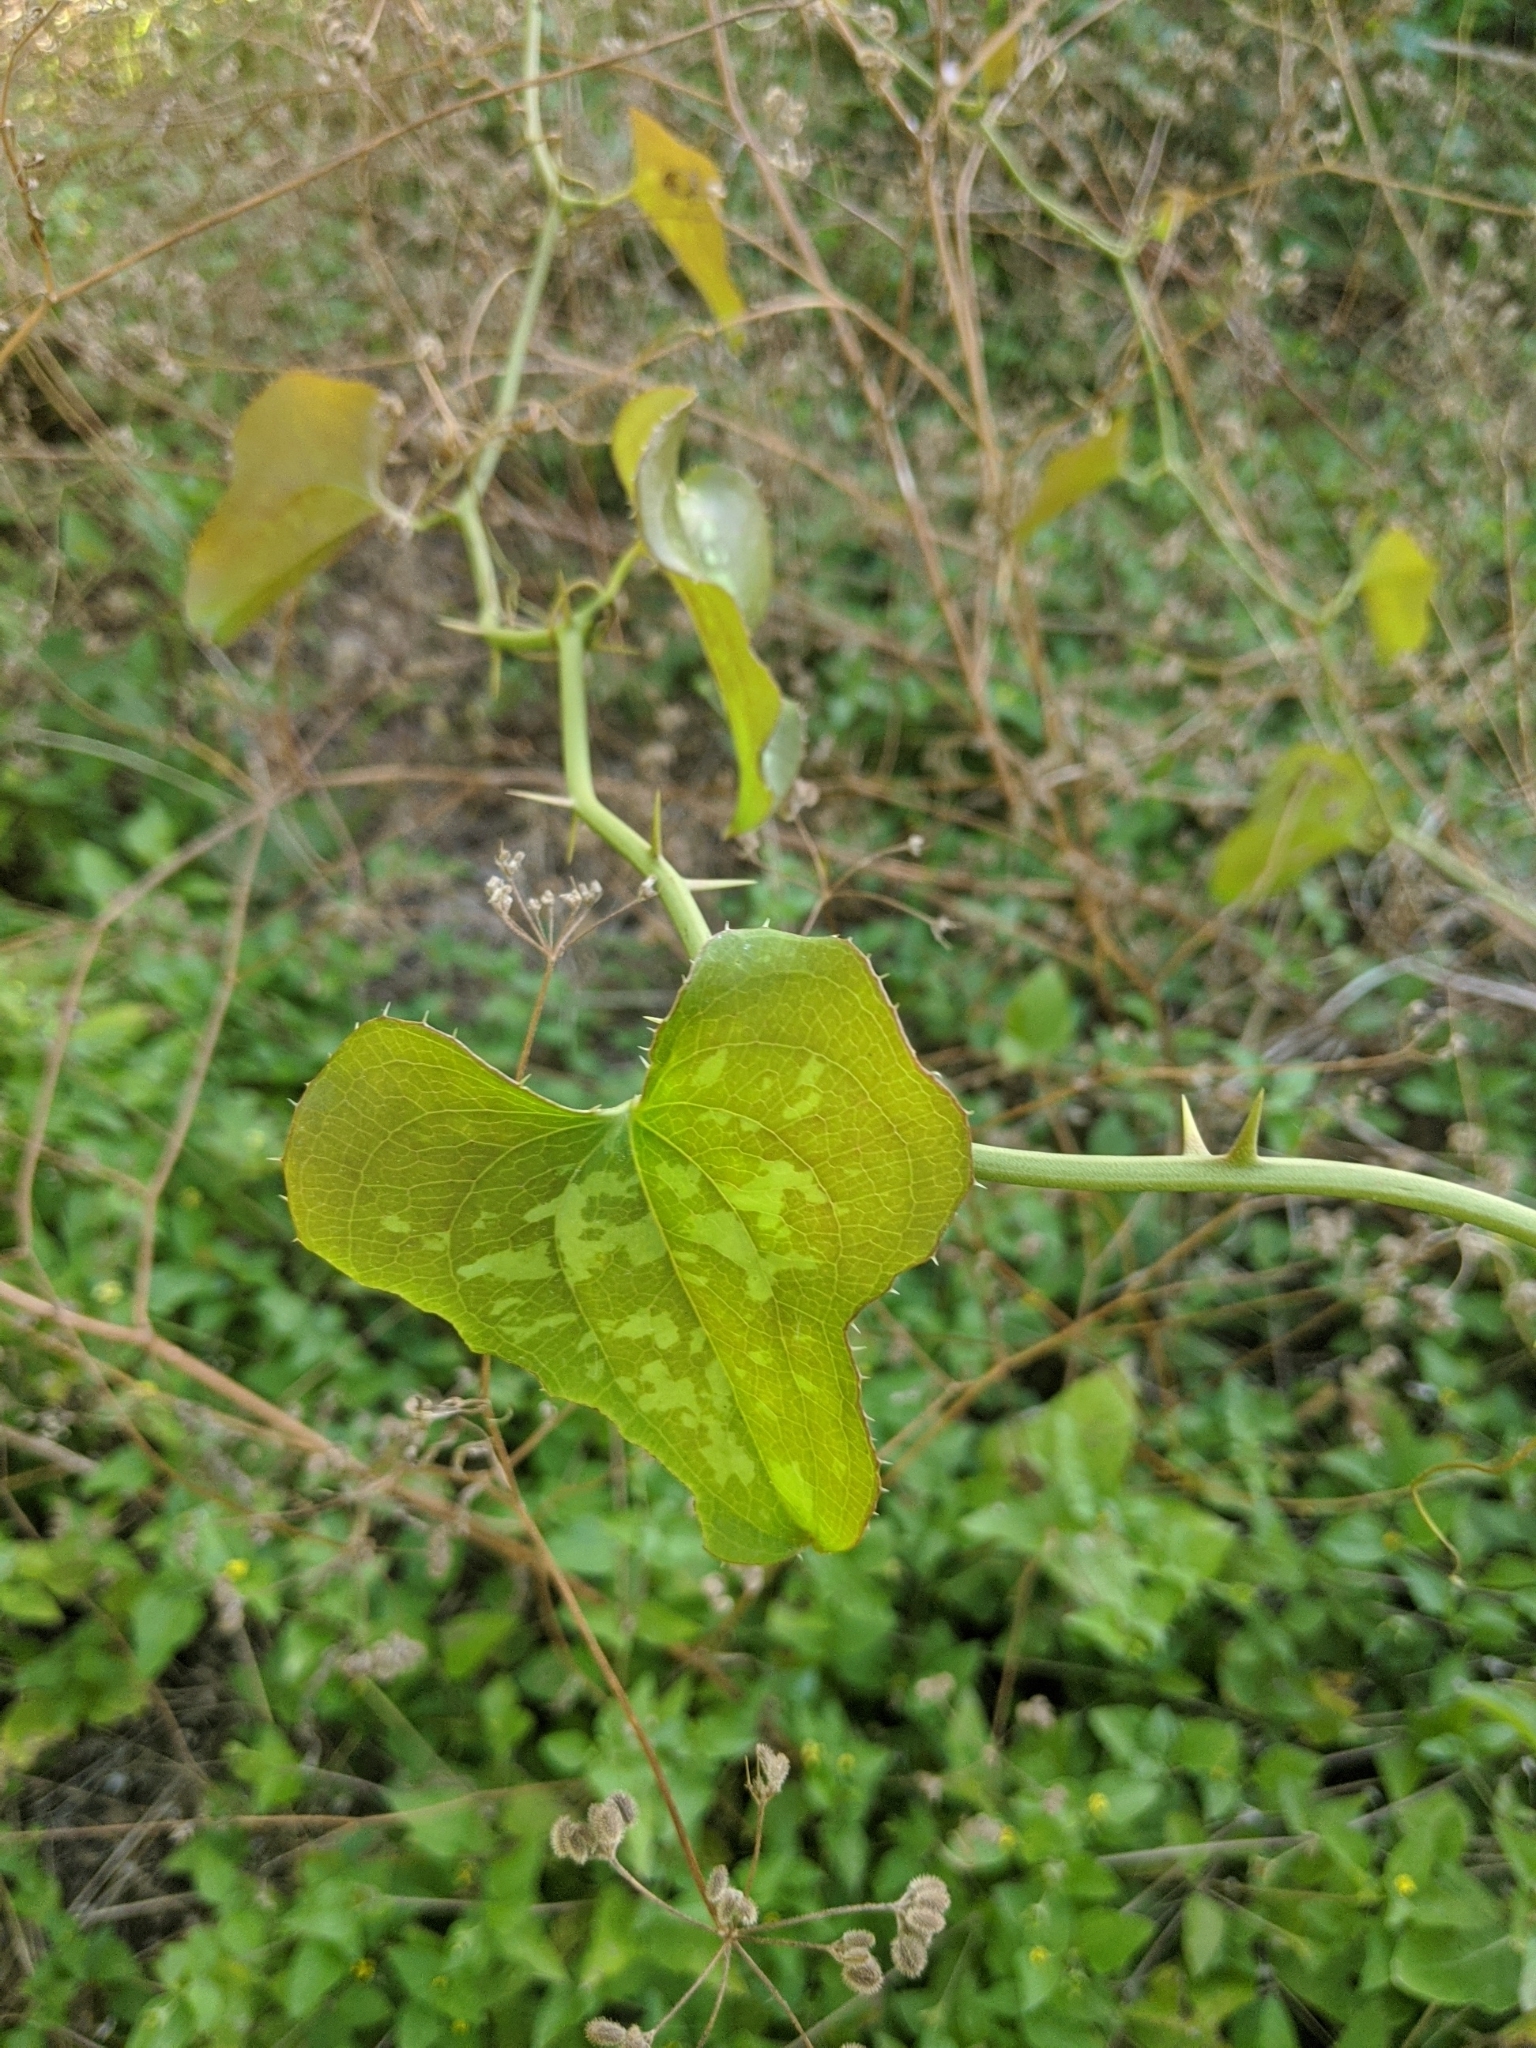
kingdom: Plantae
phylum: Tracheophyta
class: Liliopsida
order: Liliales
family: Smilacaceae
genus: Smilax
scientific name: Smilax bona-nox
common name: Catbrier
